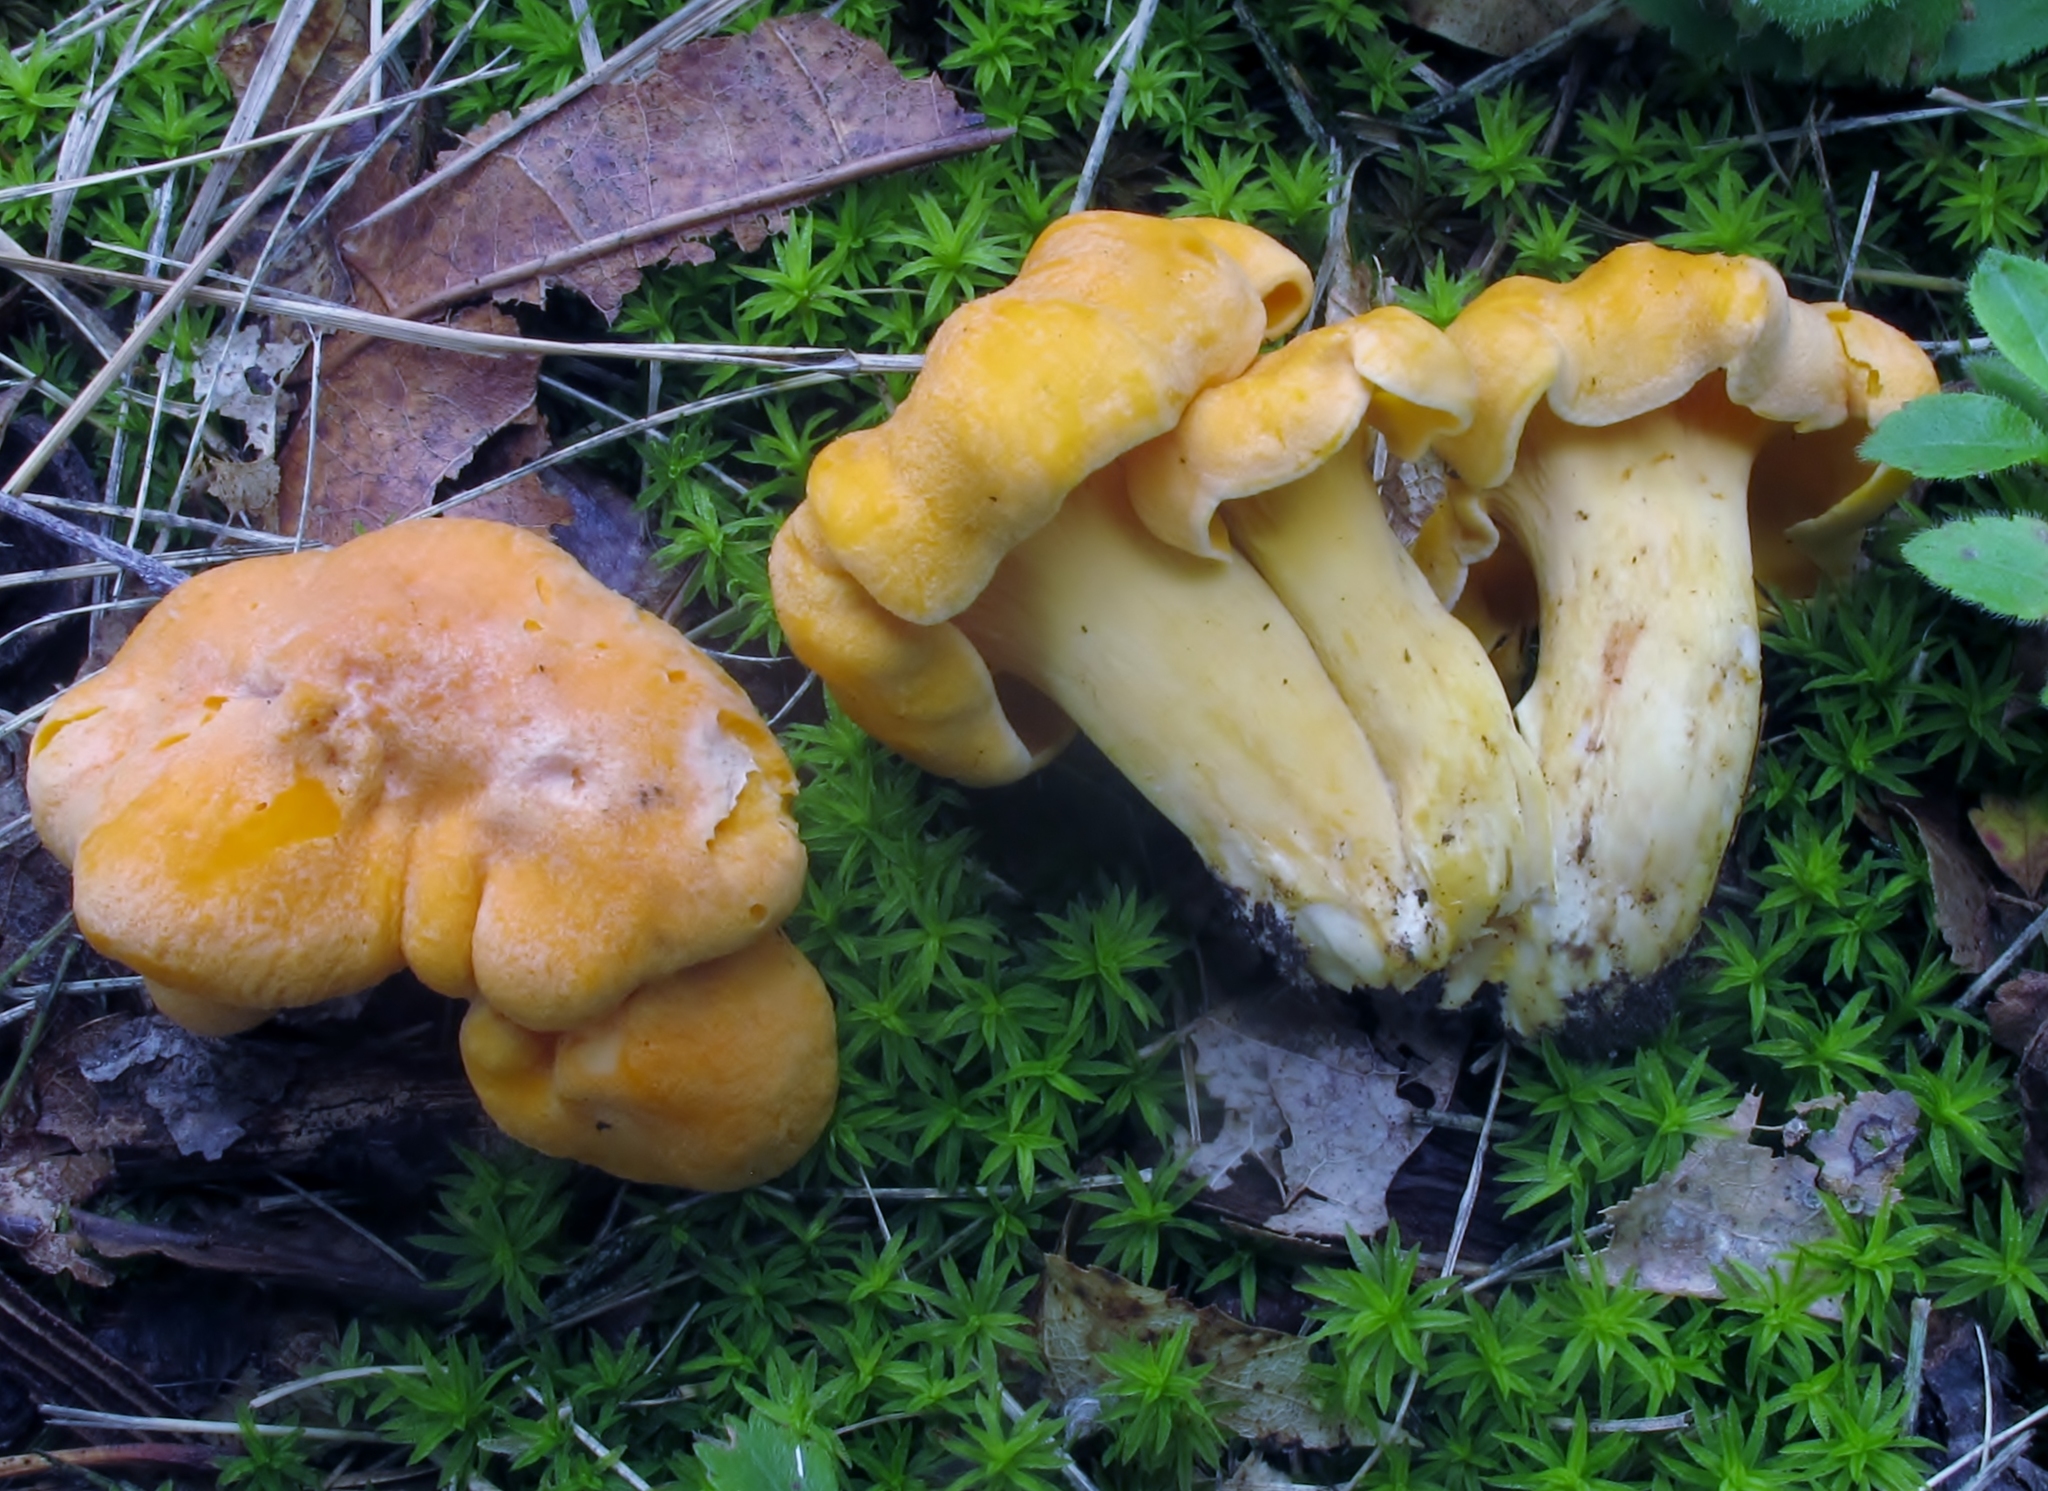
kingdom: Fungi
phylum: Basidiomycota
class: Agaricomycetes
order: Cantharellales
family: Hydnaceae
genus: Cantharellus
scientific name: Cantharellus lateritius
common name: Smooth chanterelle
